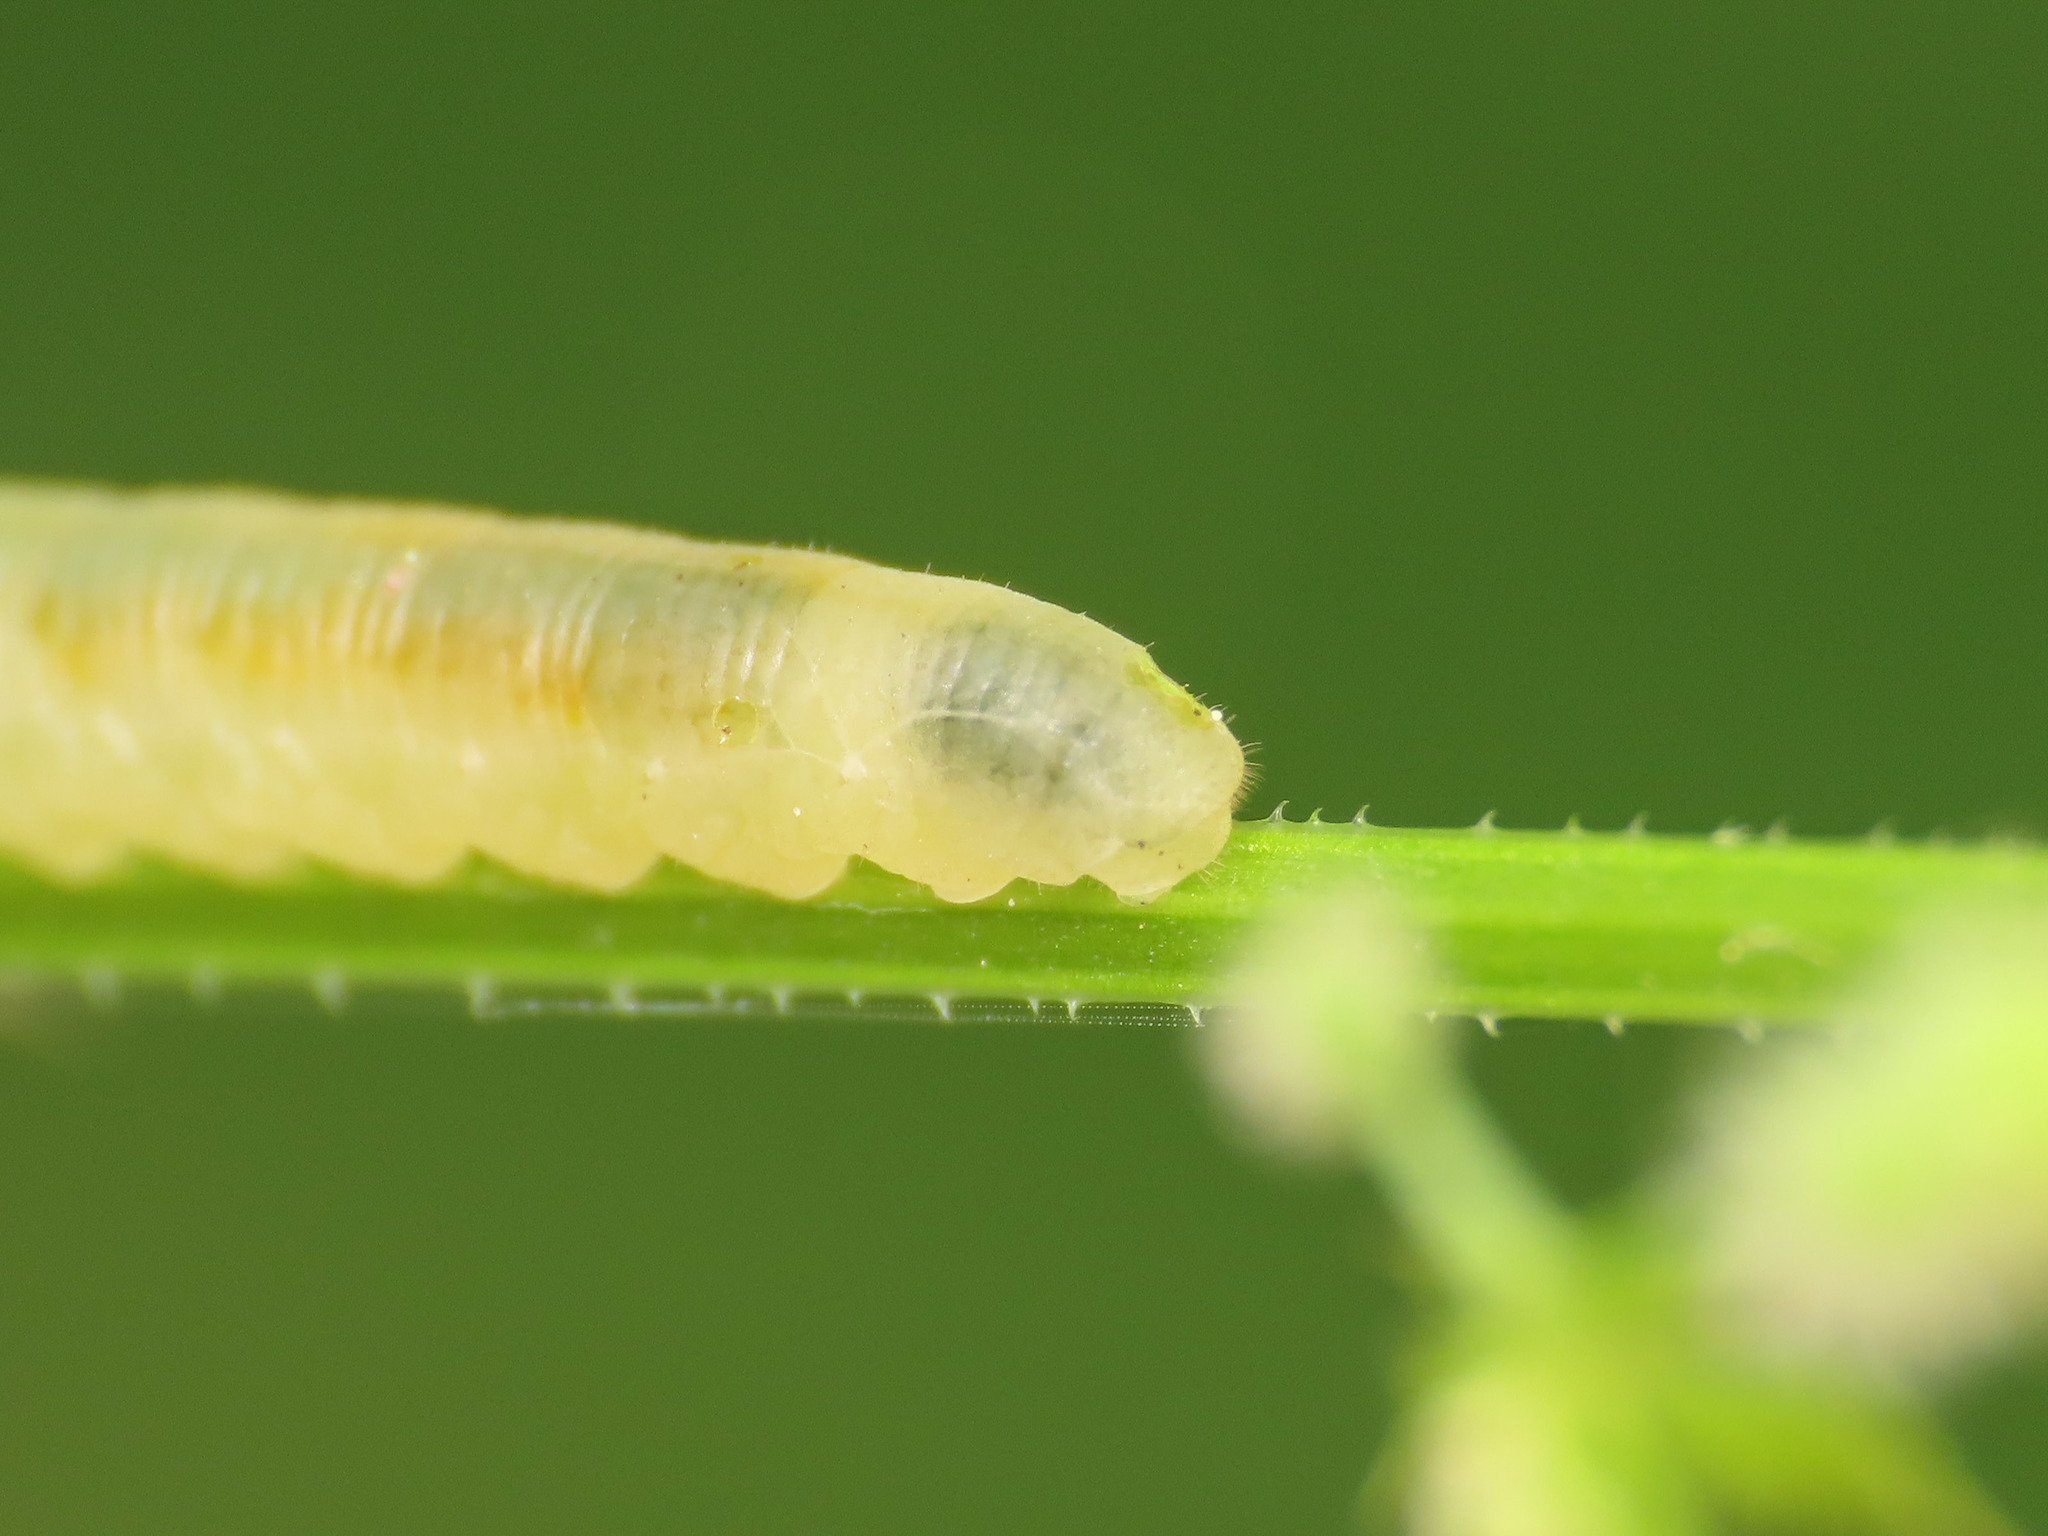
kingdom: Animalia
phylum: Arthropoda
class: Insecta
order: Hymenoptera
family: Tenthredinidae
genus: Halidamia
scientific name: Halidamia affinis
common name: Wasp
